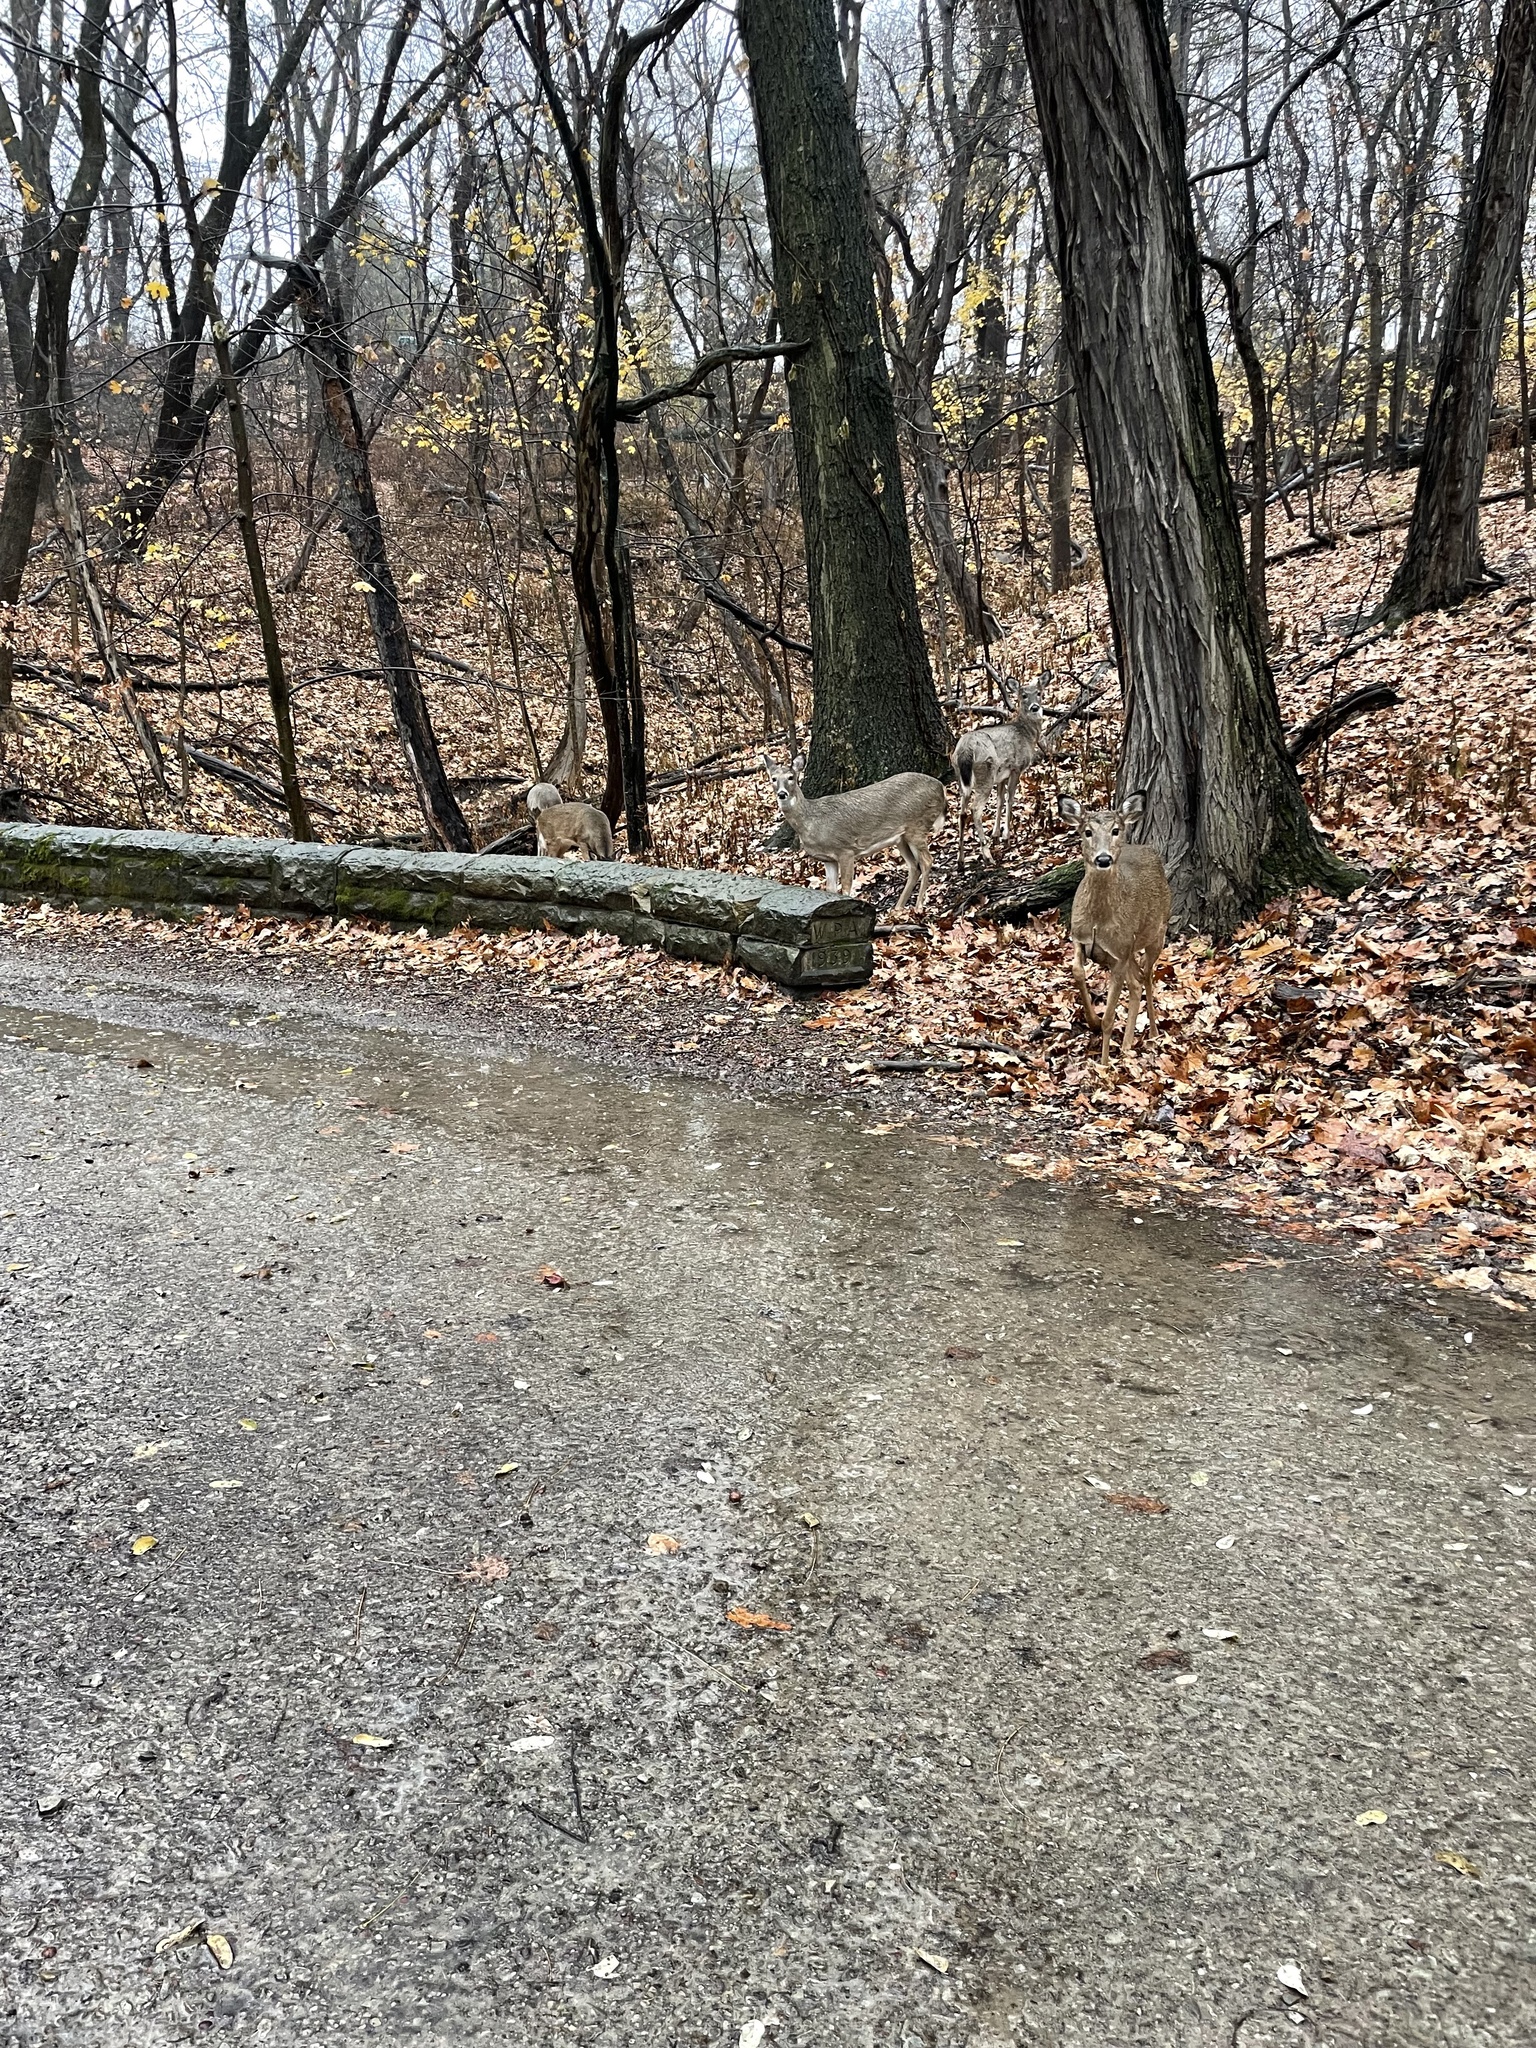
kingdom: Animalia
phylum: Chordata
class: Mammalia
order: Artiodactyla
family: Cervidae
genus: Odocoileus
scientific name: Odocoileus virginianus
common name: White-tailed deer
